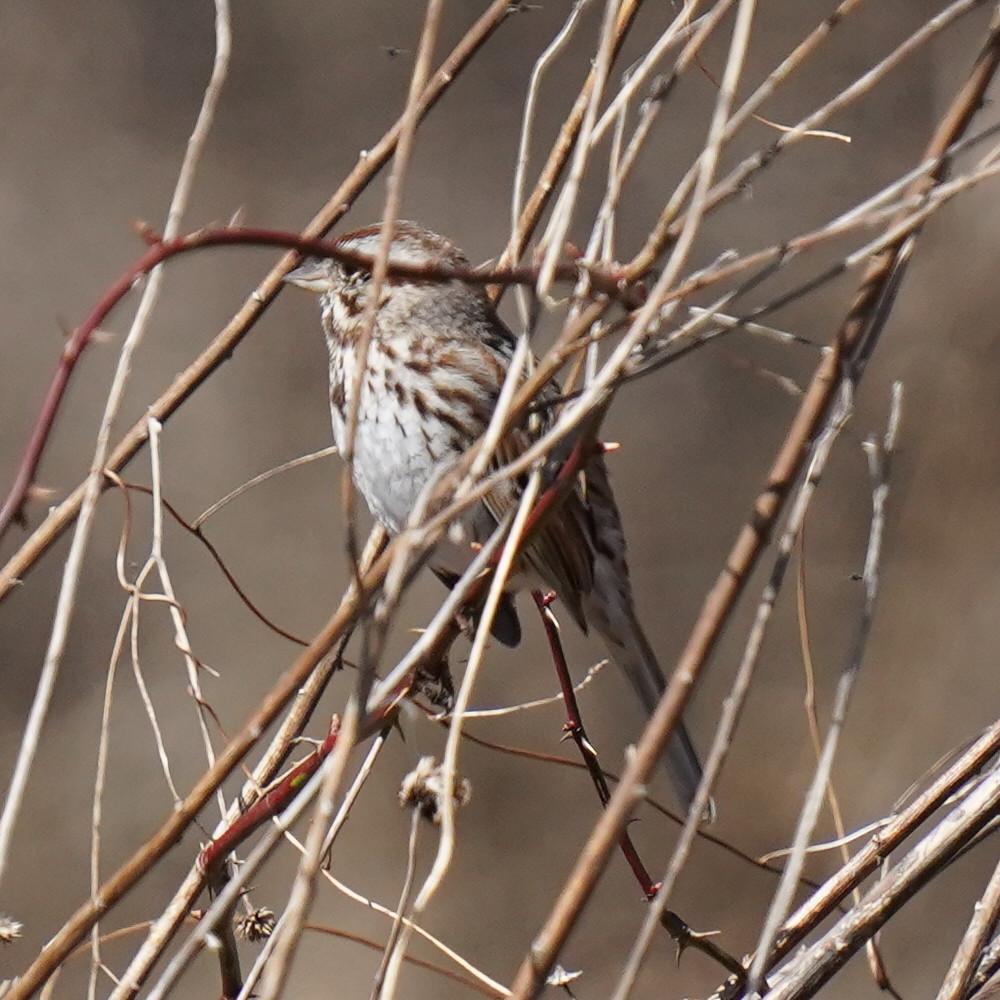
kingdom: Animalia
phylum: Chordata
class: Aves
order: Passeriformes
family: Passerellidae
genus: Melospiza
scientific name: Melospiza melodia
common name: Song sparrow
